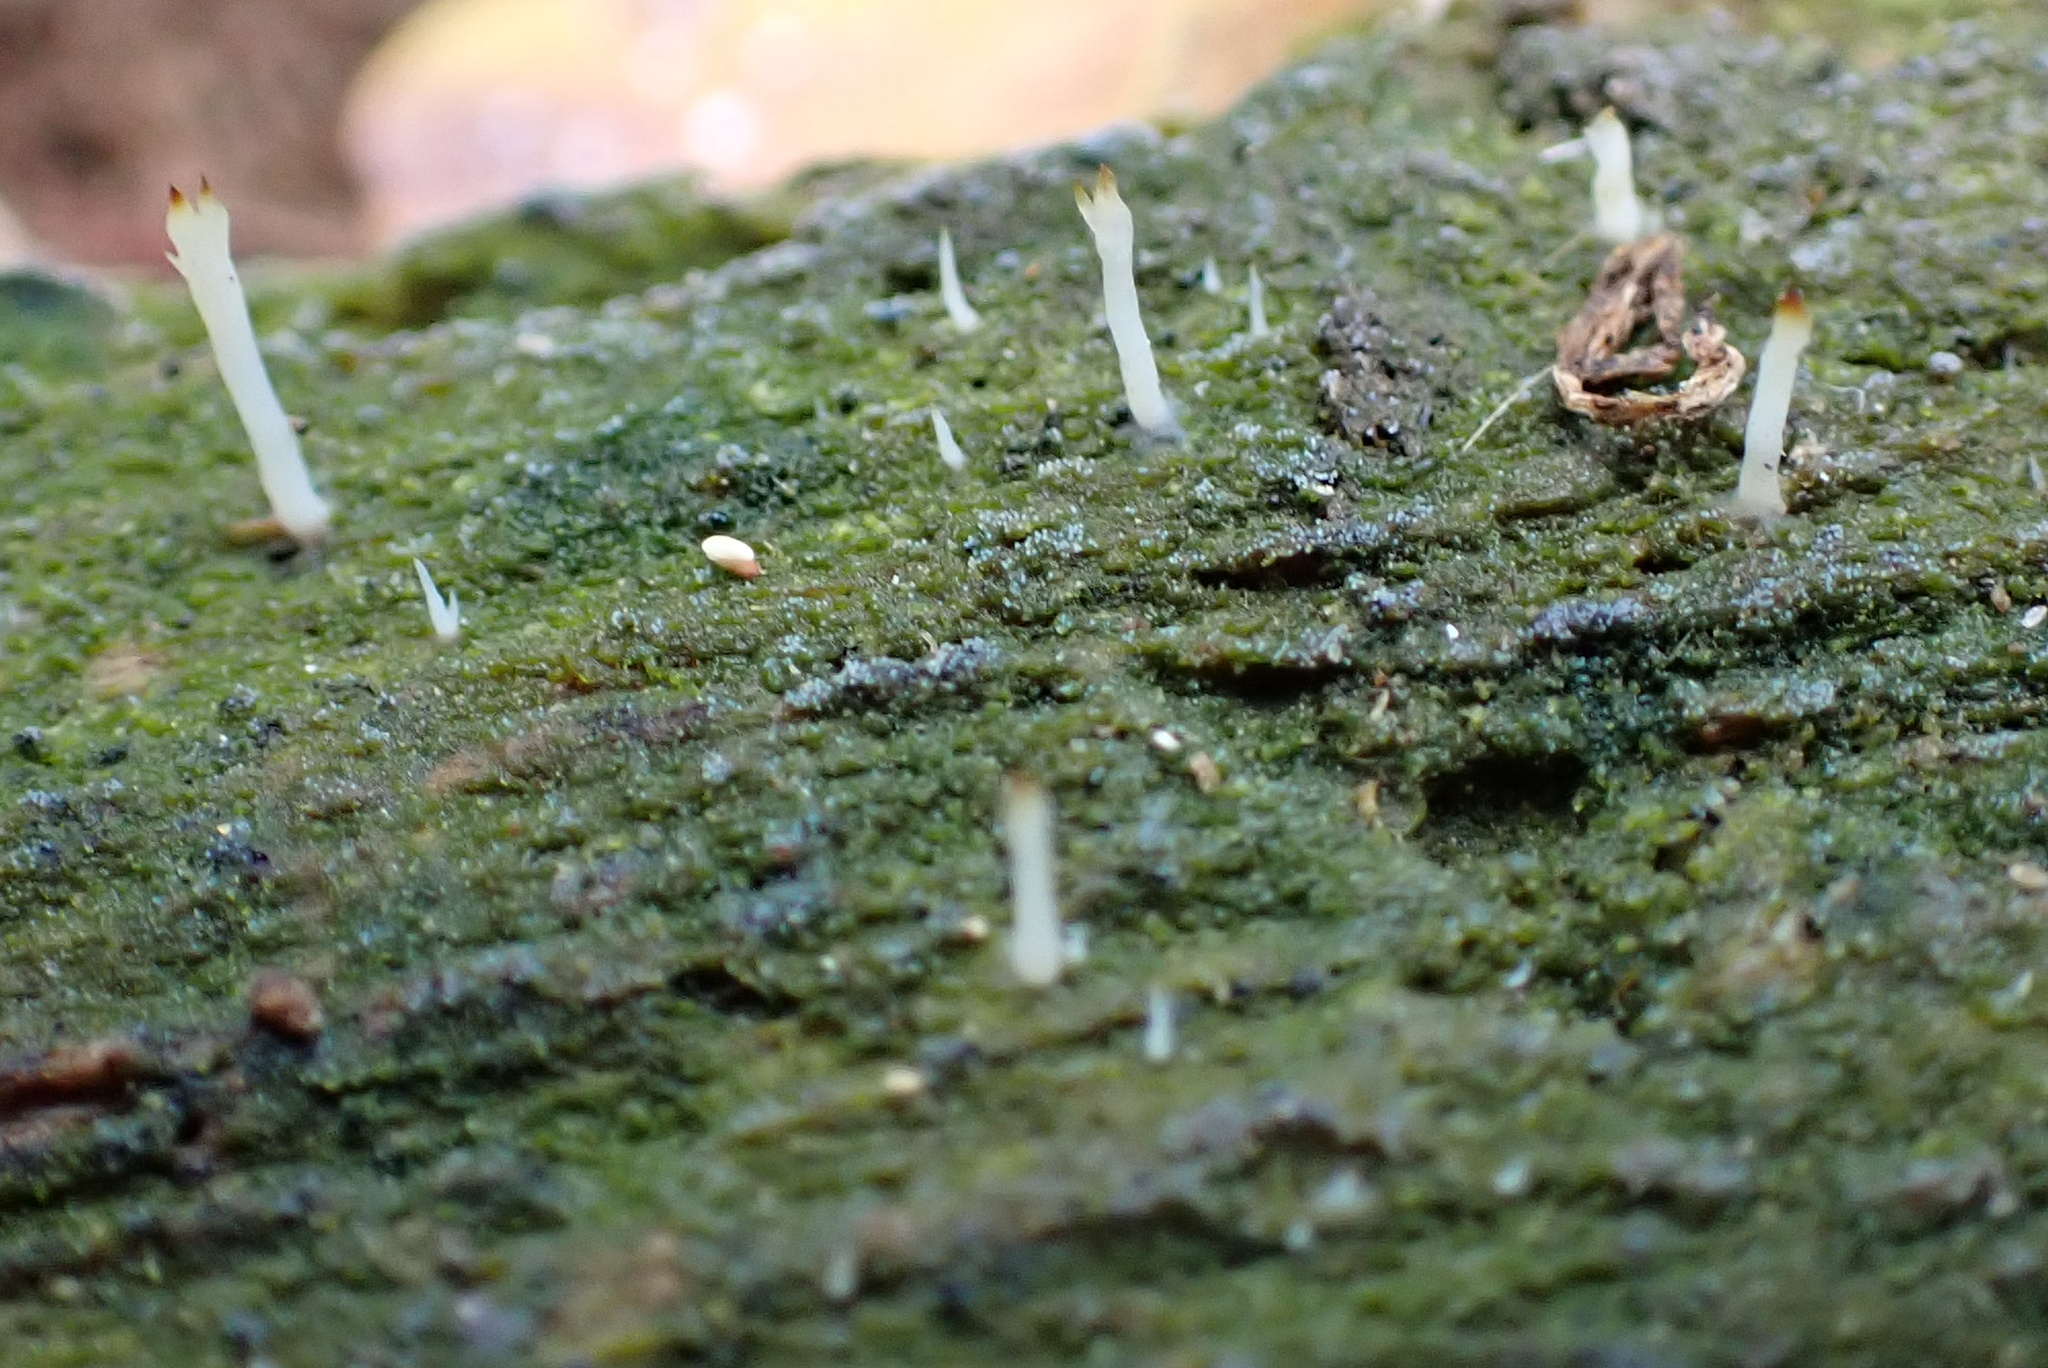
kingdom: Fungi
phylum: Basidiomycota
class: Agaricomycetes
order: Cantharellales
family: Hydnaceae
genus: Multiclavula
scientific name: Multiclavula mucida
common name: White green-algae coral
